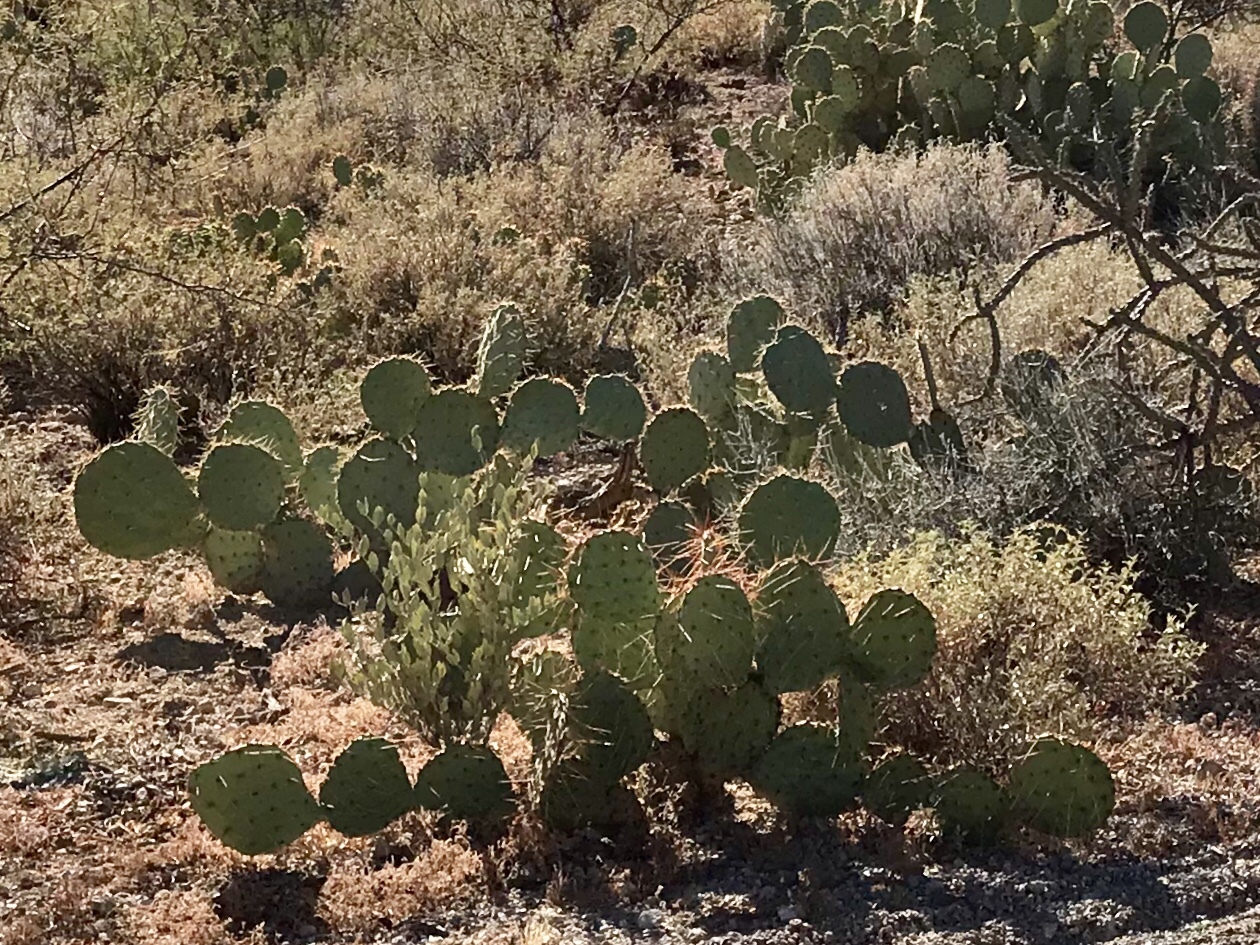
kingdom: Plantae
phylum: Tracheophyta
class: Magnoliopsida
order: Caryophyllales
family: Cactaceae
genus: Opuntia
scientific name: Opuntia phaeacantha
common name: New mexico prickly-pear
